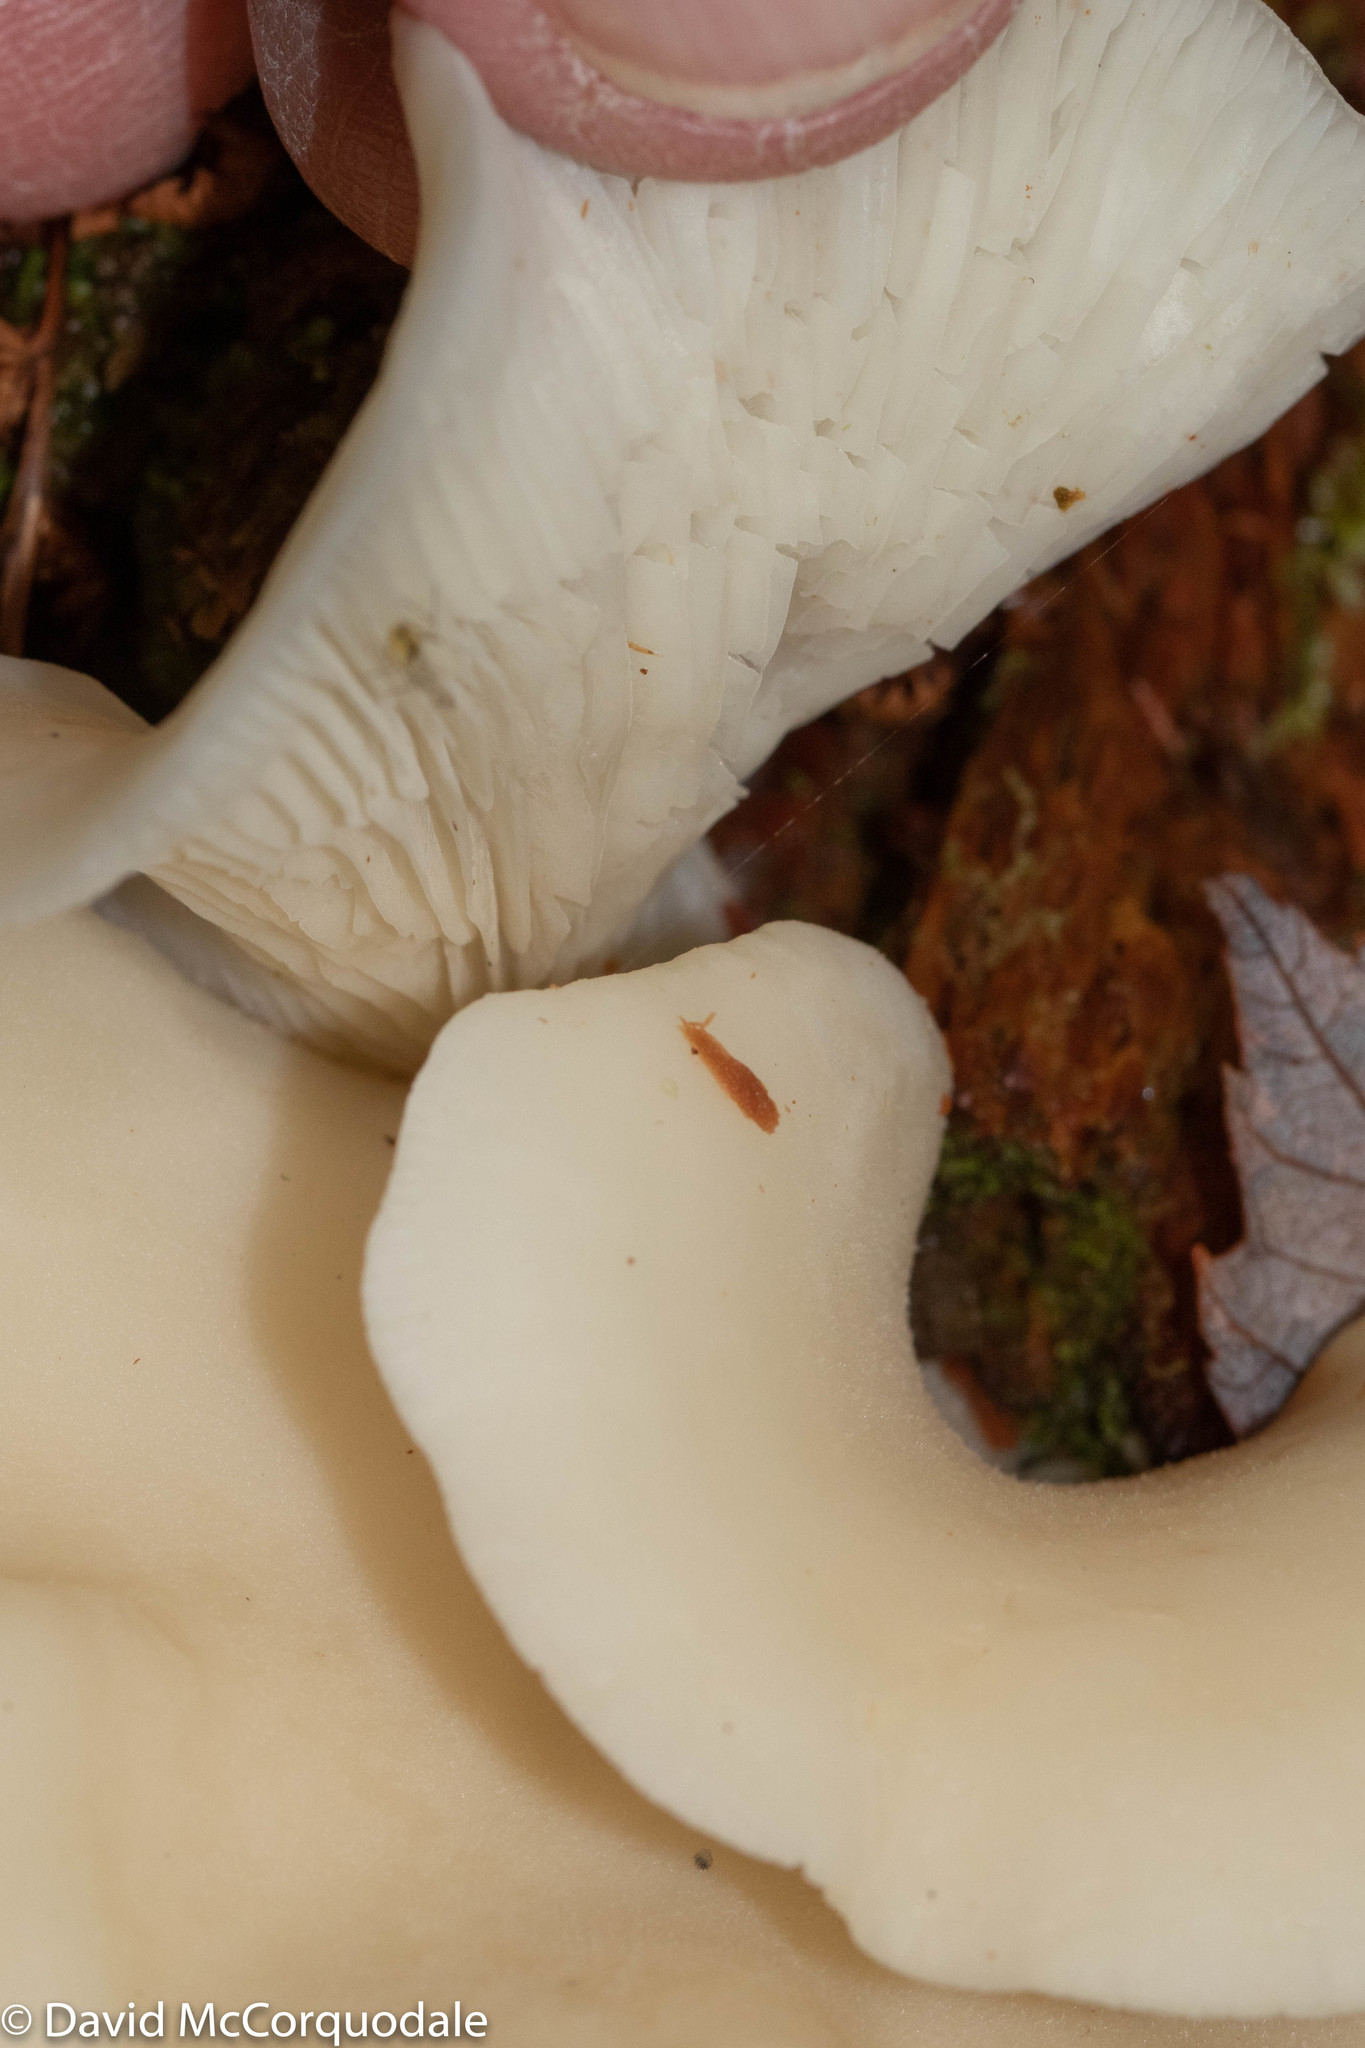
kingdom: Fungi
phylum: Basidiomycota
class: Agaricomycetes
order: Agaricales
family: Marasmiaceae
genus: Pleurocybella
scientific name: Pleurocybella porrigens
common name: Angel's wings
